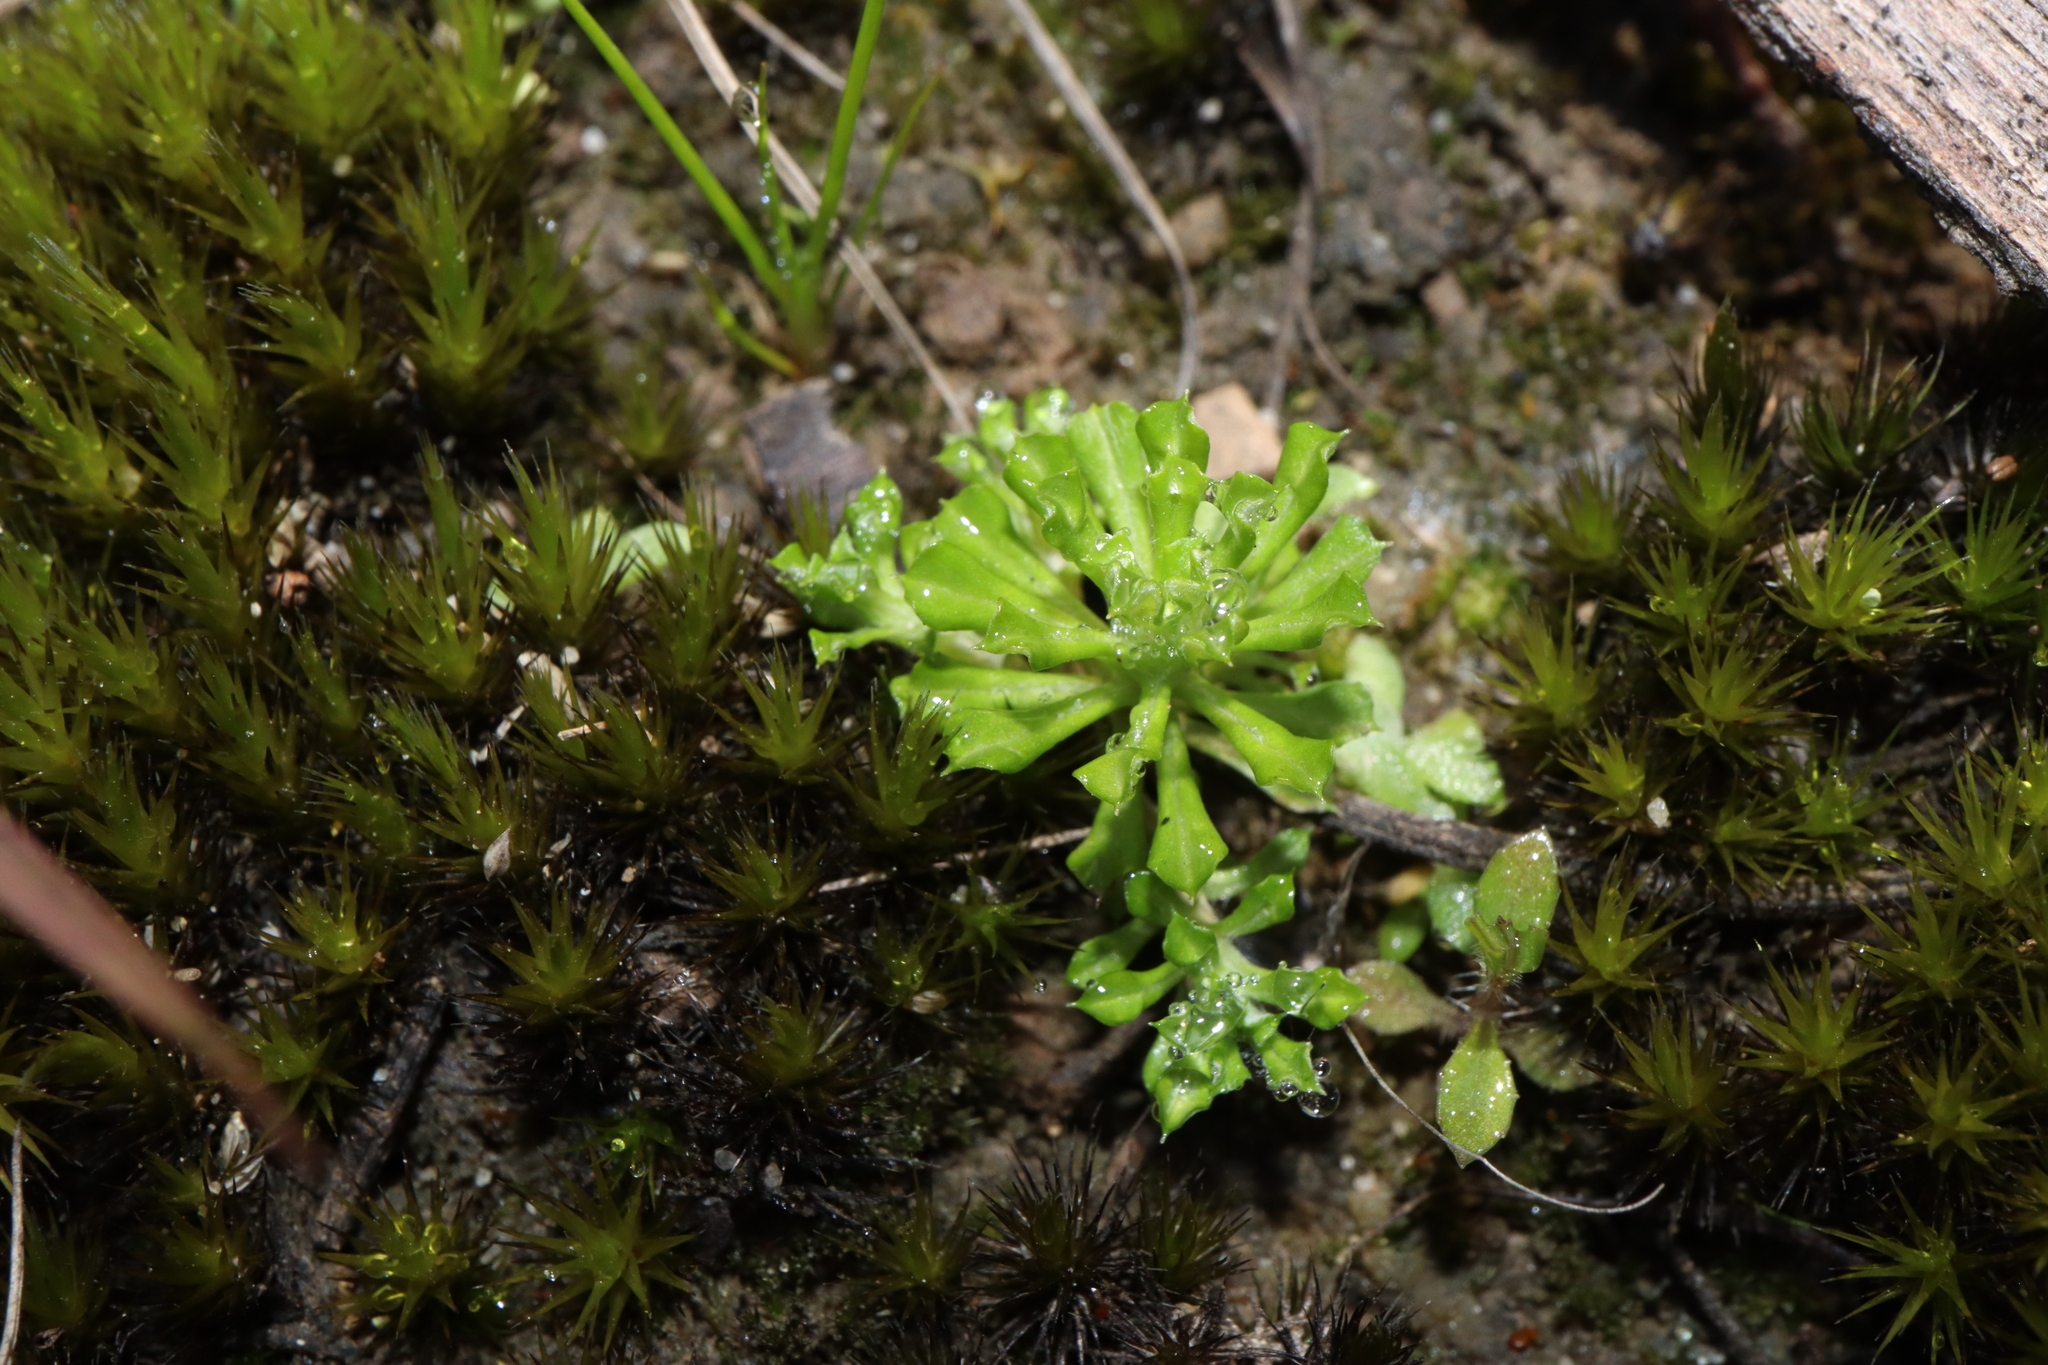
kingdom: Plantae
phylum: Tracheophyta
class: Magnoliopsida
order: Asterales
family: Asteraceae
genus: Facelis
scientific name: Facelis retusa
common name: Annual trampweed
